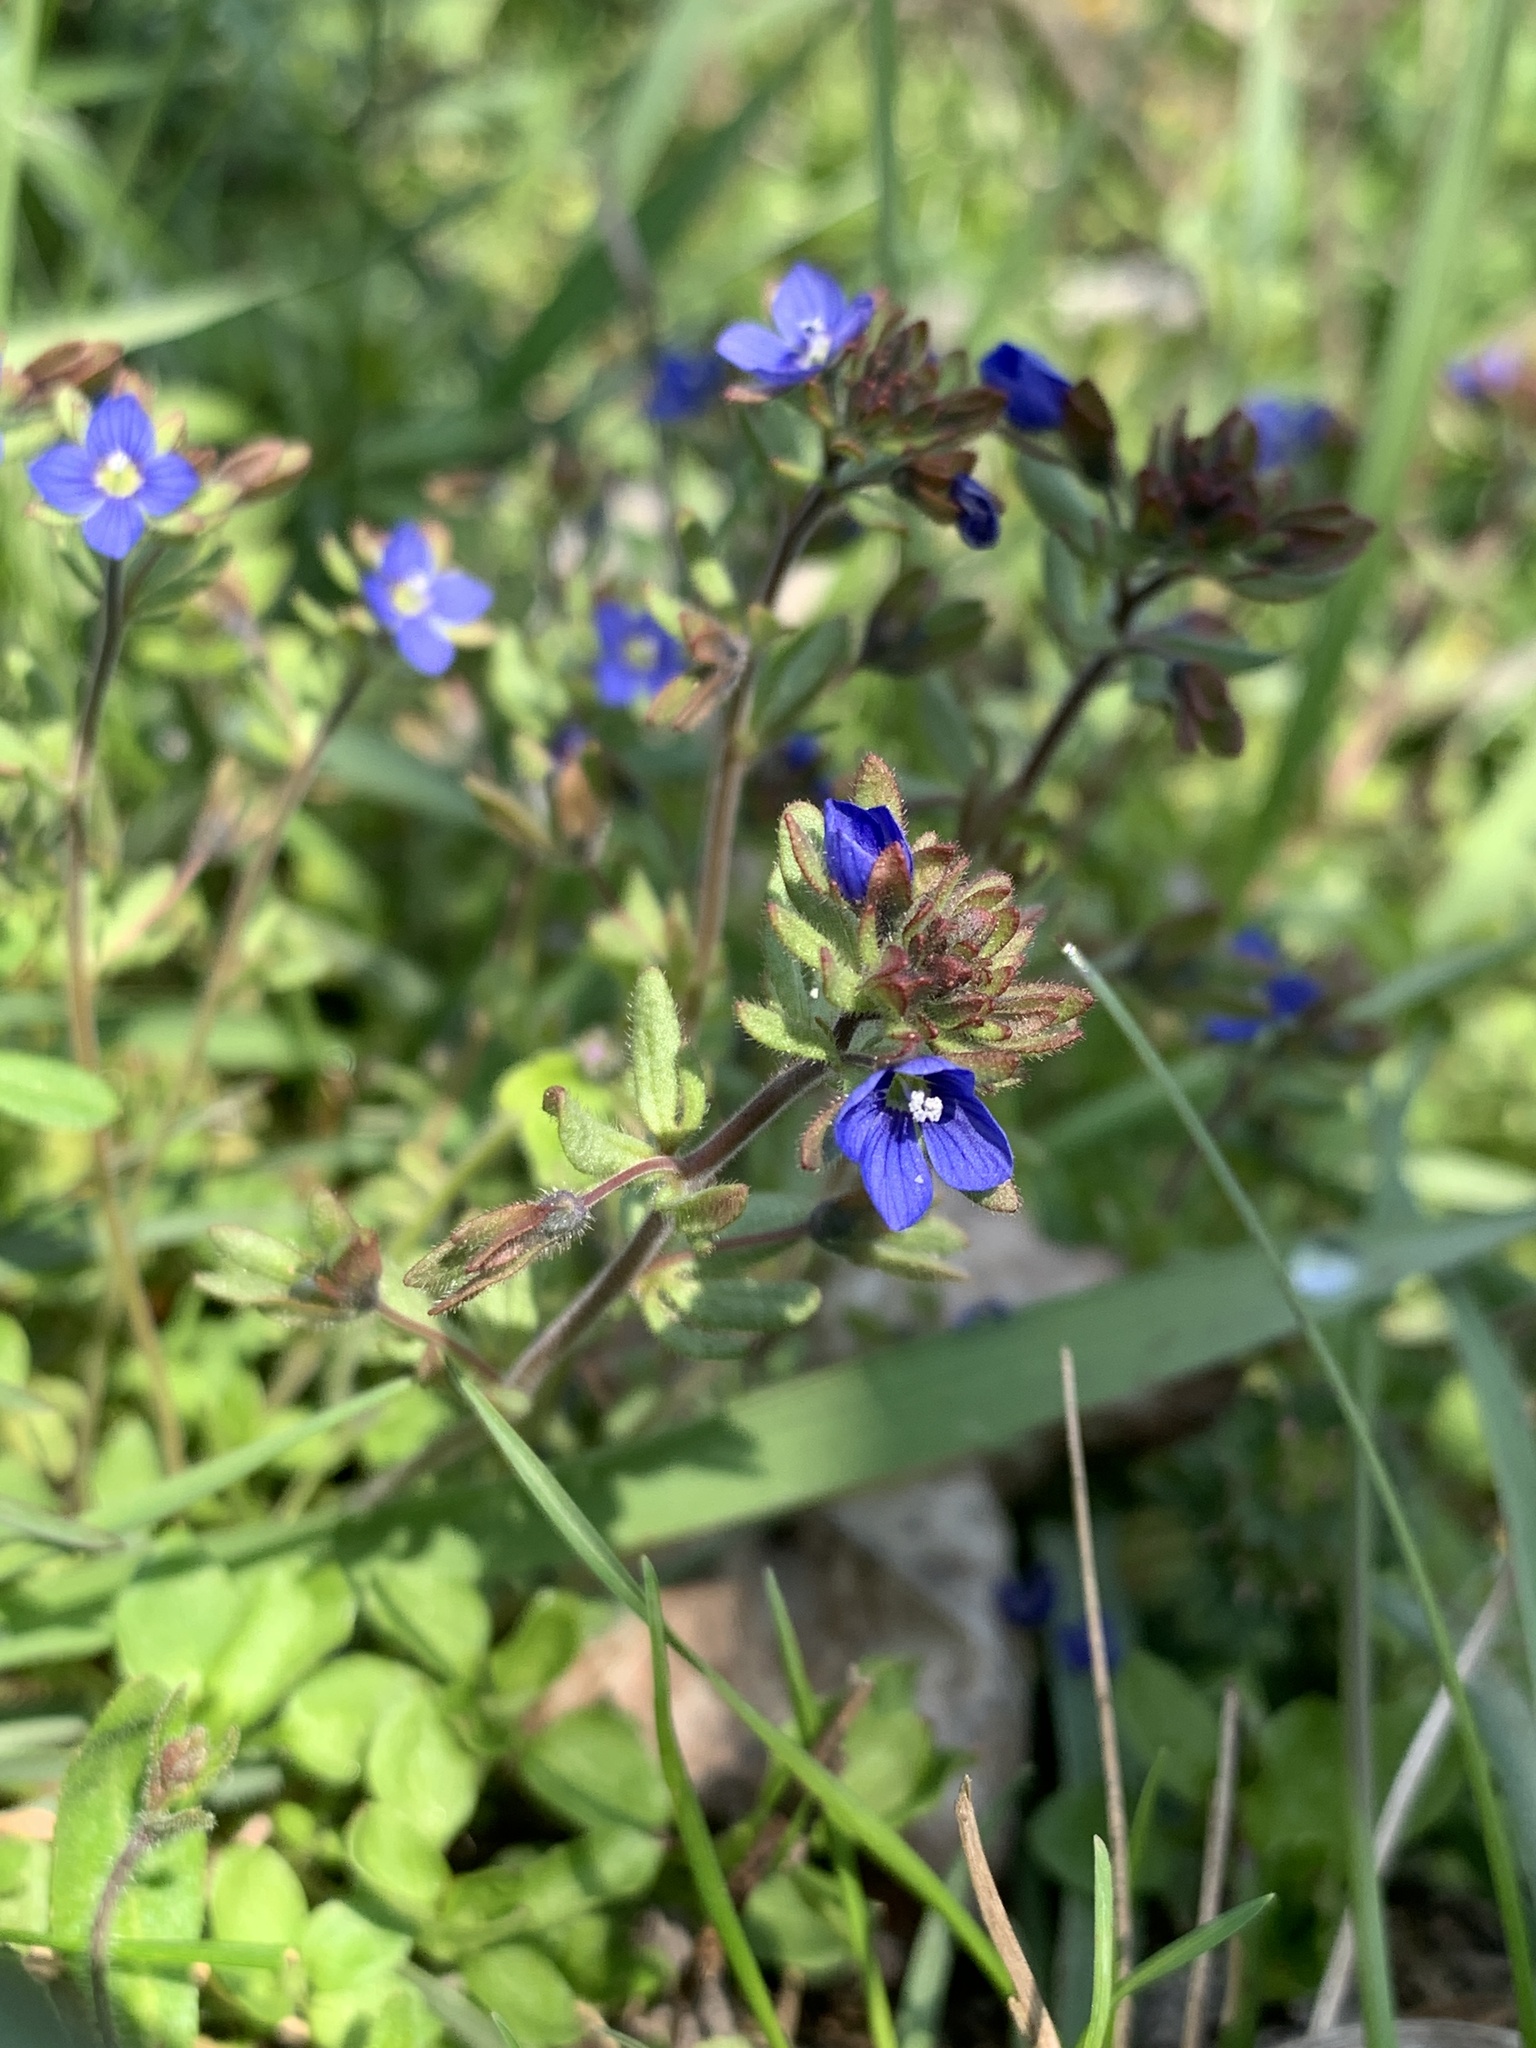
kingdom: Plantae
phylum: Tracheophyta
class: Magnoliopsida
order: Lamiales
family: Plantaginaceae
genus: Veronica
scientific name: Veronica triphyllos
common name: Fingered speedwell
